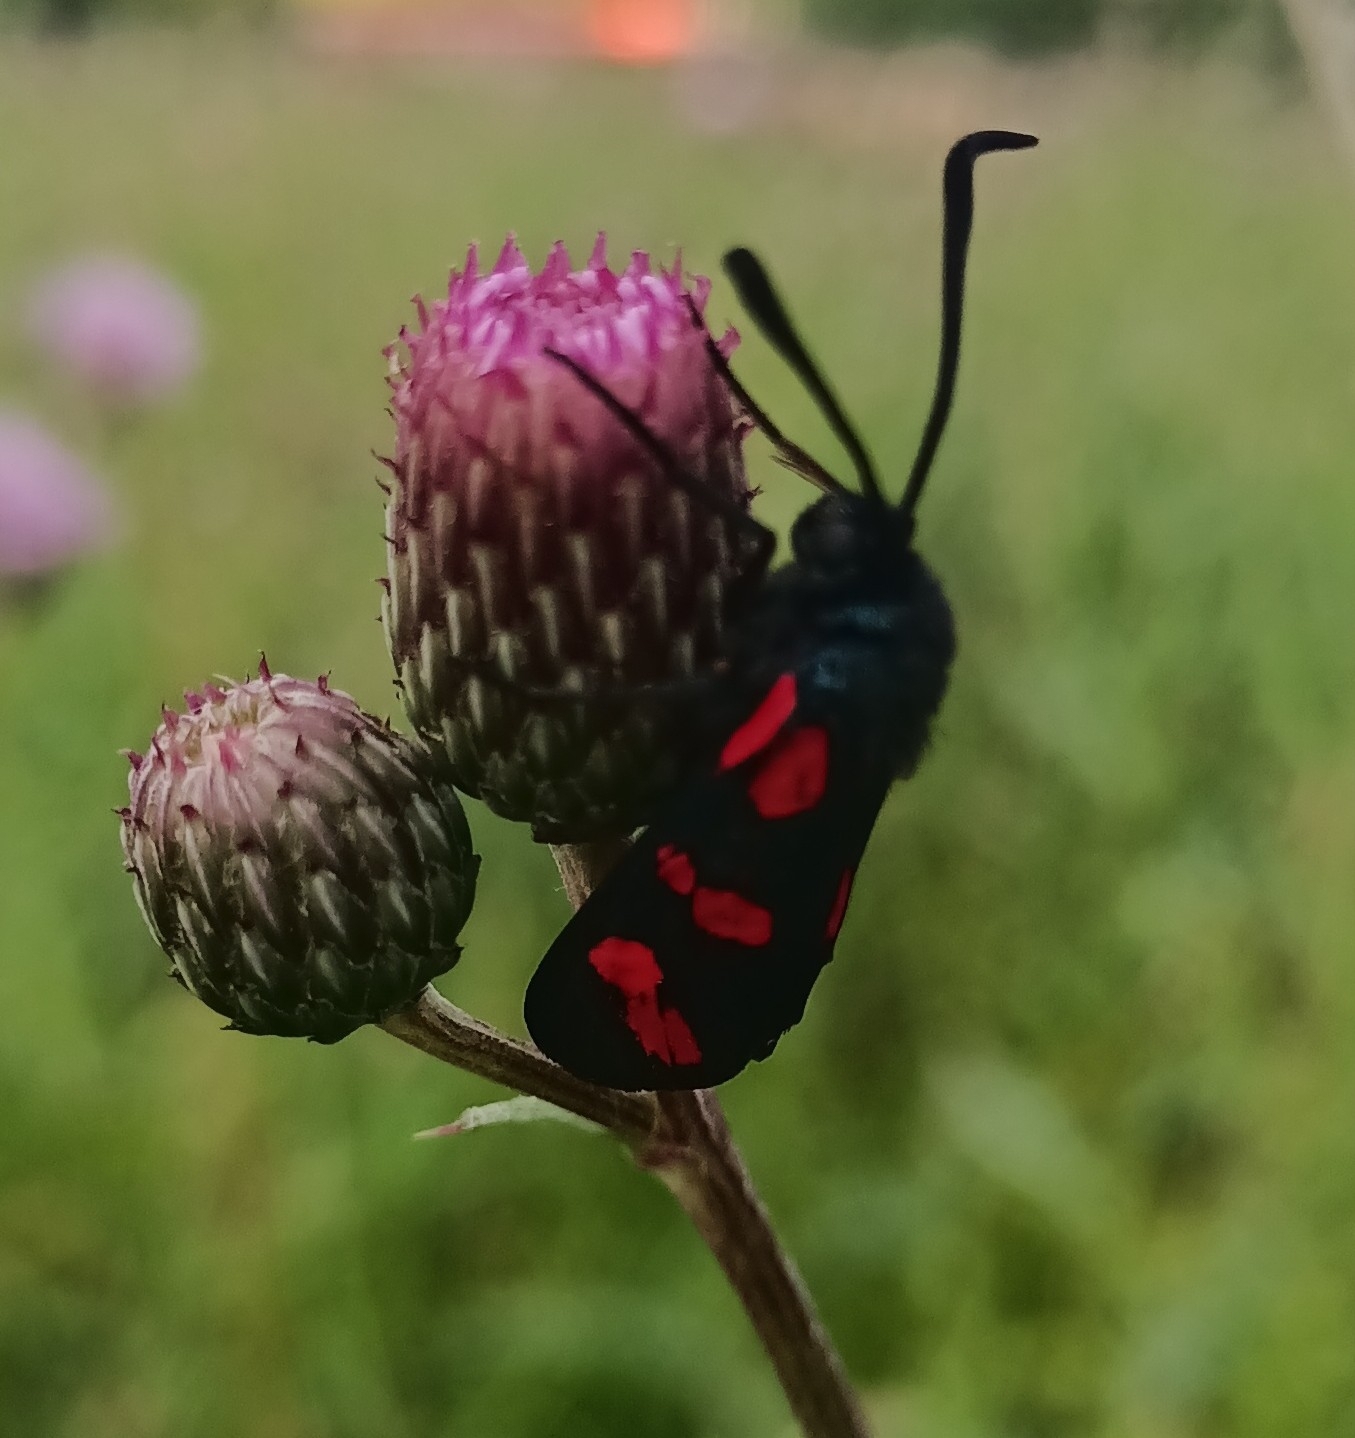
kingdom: Animalia
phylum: Arthropoda
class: Insecta
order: Lepidoptera
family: Zygaenidae
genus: Zygaena
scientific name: Zygaena filipendulae
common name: Six-spot burnet
